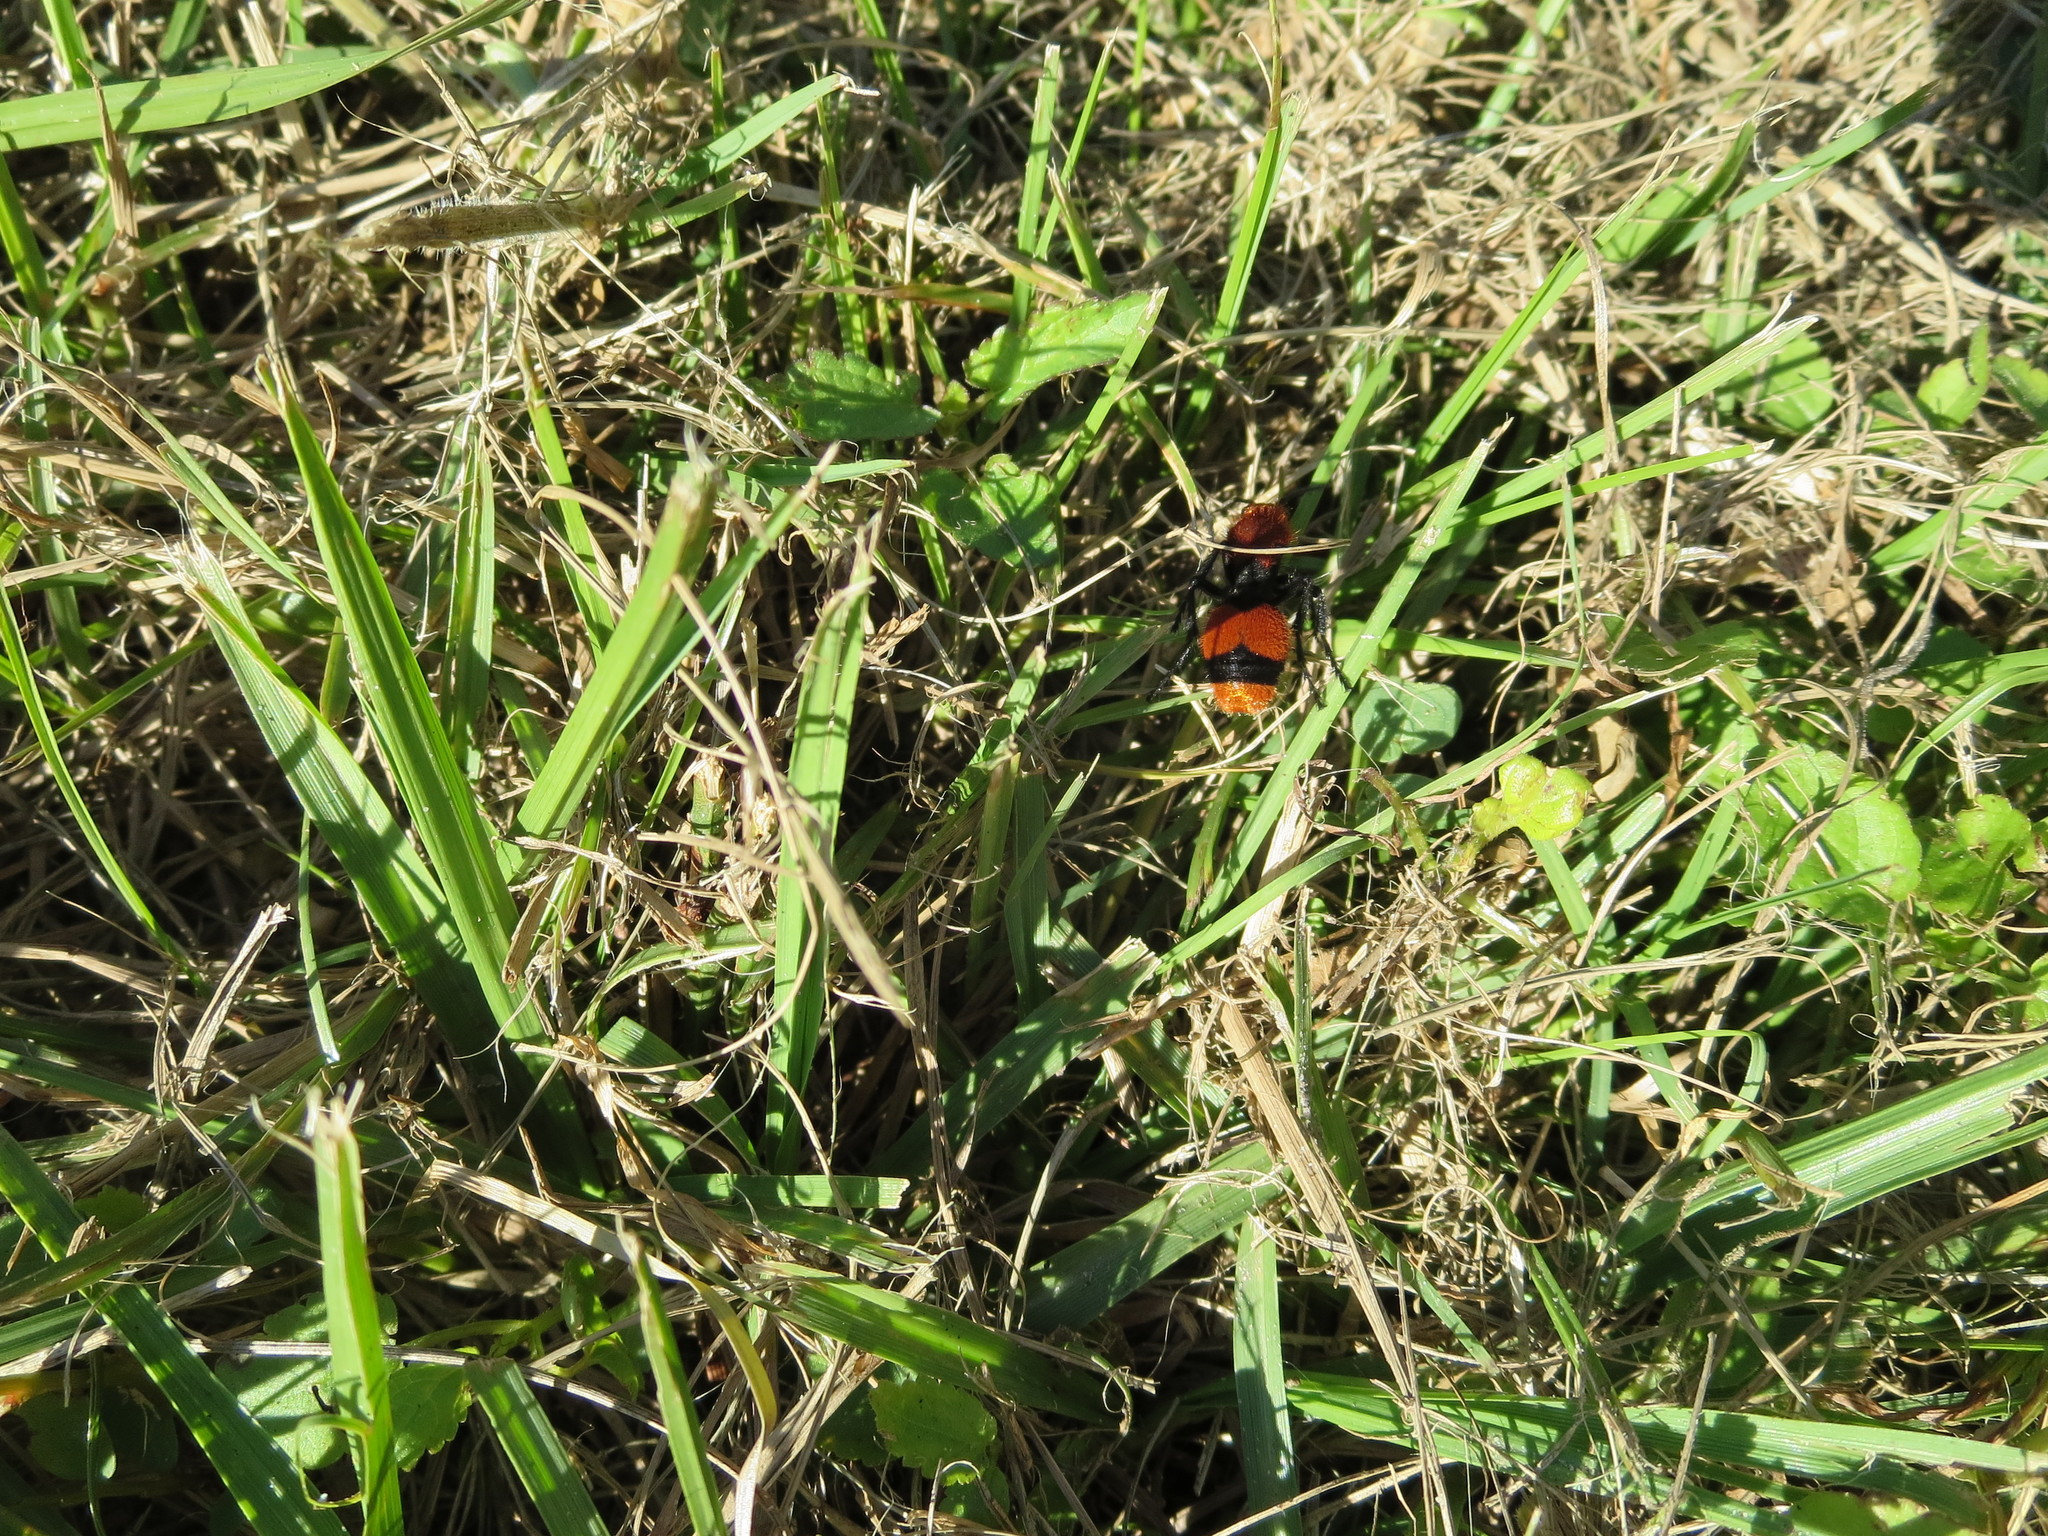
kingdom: Animalia
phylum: Arthropoda
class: Insecta
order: Hymenoptera
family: Mutillidae
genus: Dasymutilla
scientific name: Dasymutilla occidentalis
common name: Common eastern velvet ant
